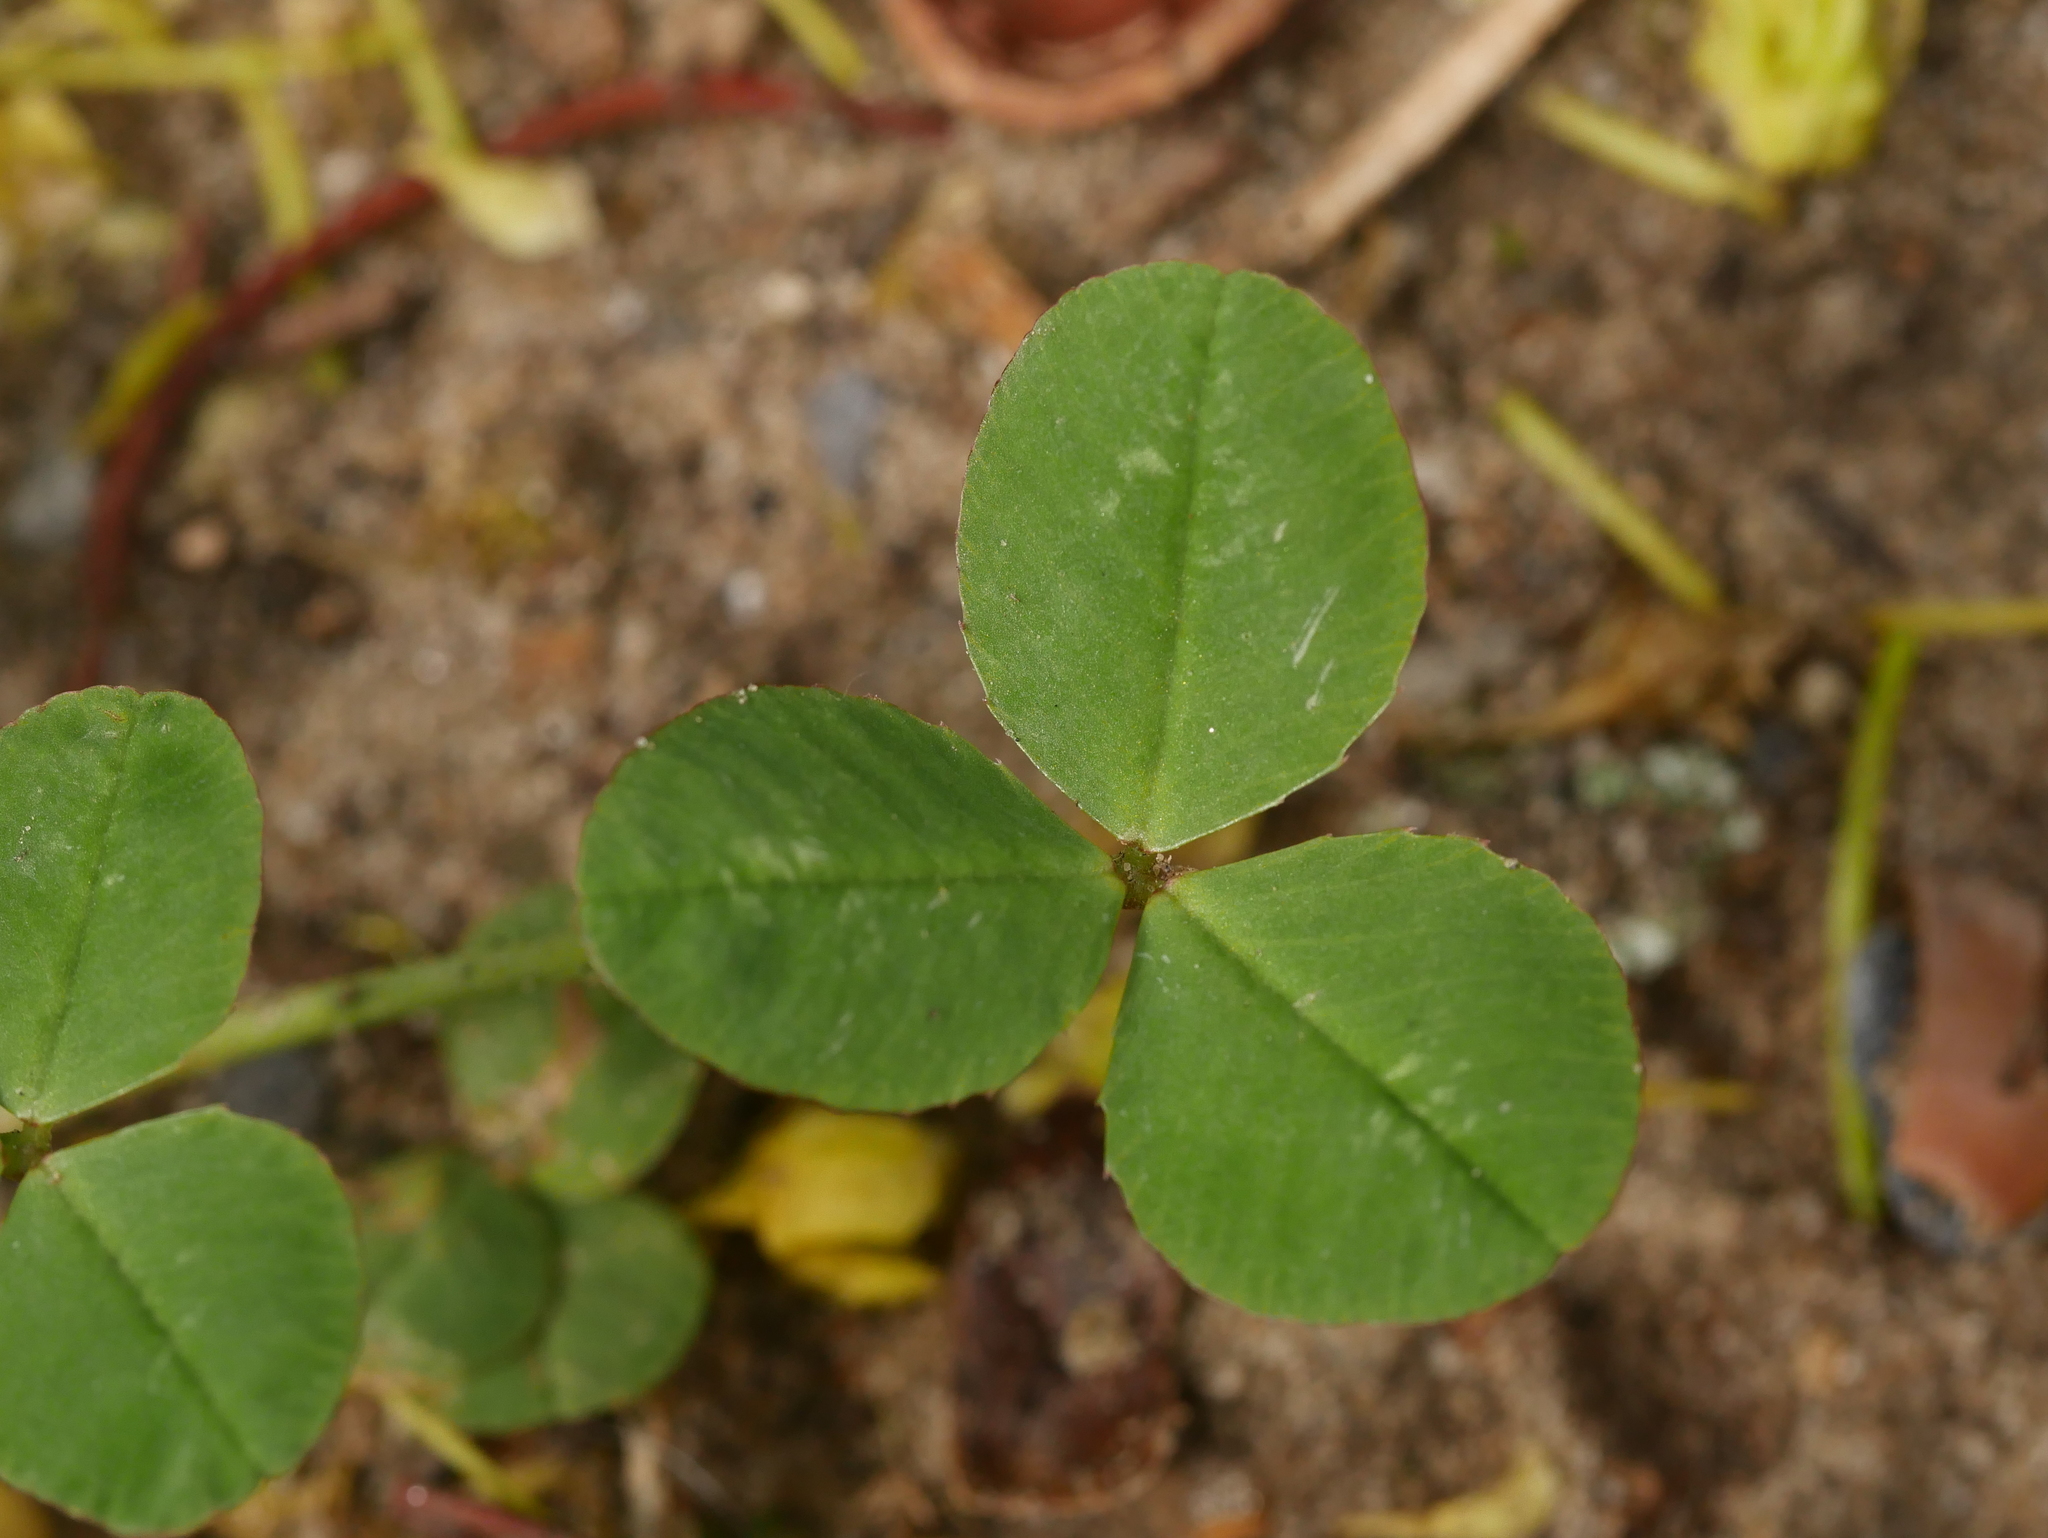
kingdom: Plantae
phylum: Tracheophyta
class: Magnoliopsida
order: Fabales
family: Fabaceae
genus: Trifolium
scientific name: Trifolium repens
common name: White clover
